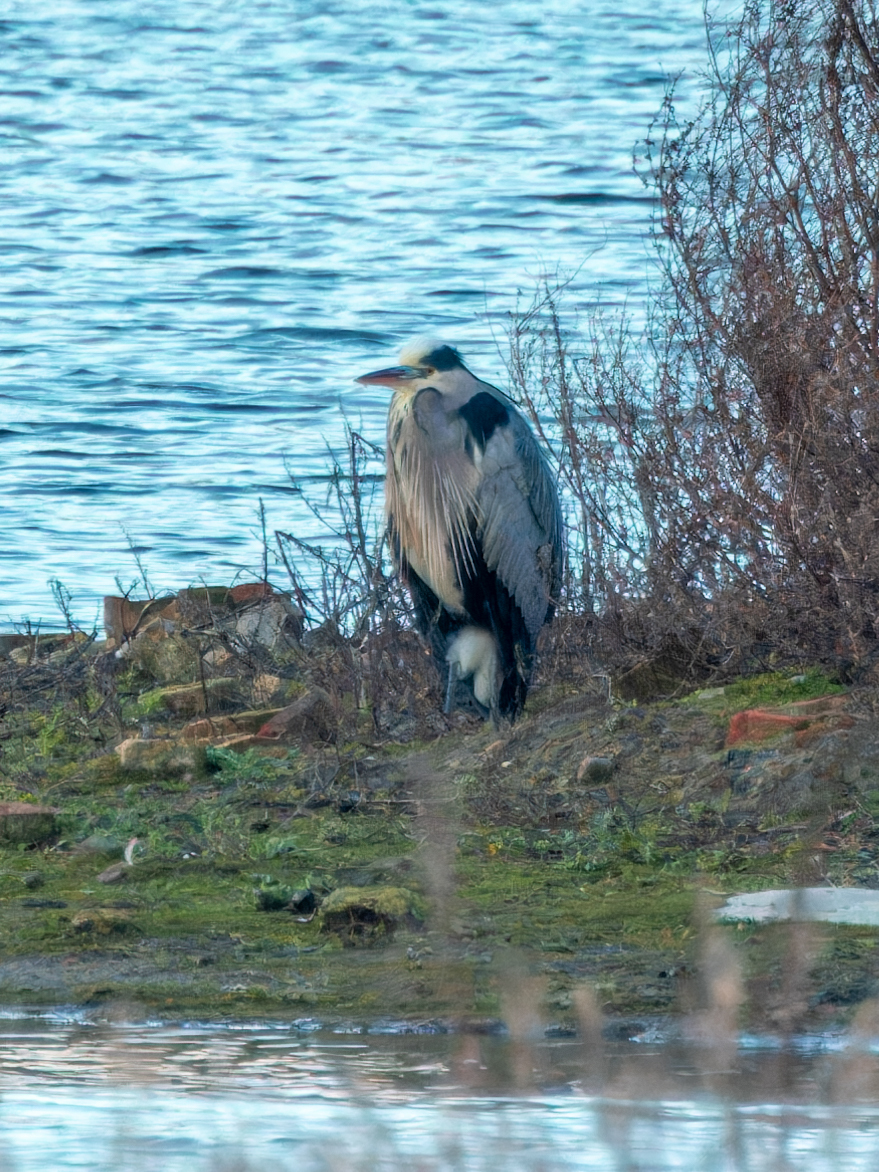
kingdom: Animalia
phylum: Chordata
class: Aves
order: Pelecaniformes
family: Ardeidae
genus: Ardea
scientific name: Ardea cinerea
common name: Grey heron
